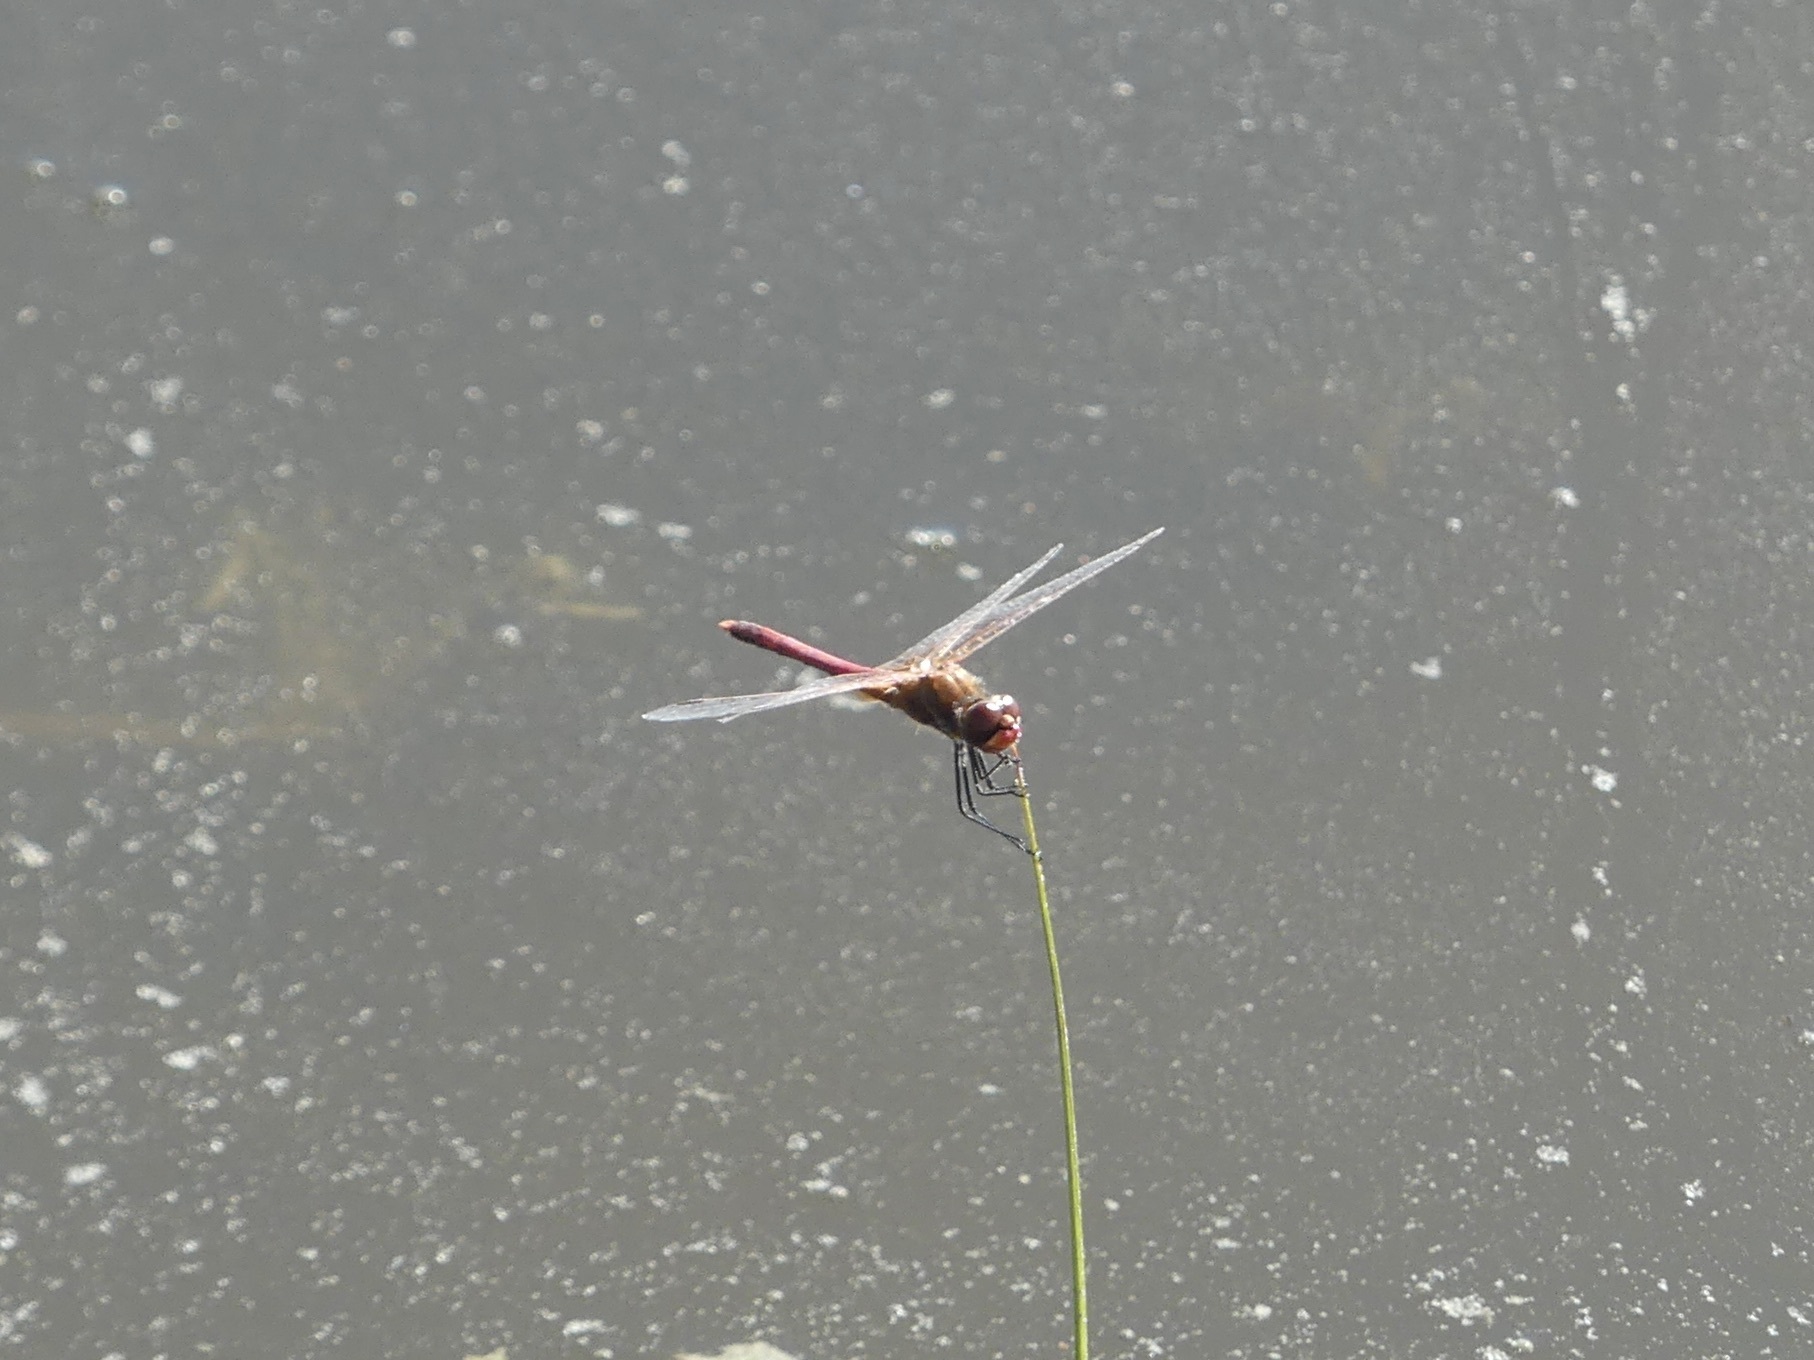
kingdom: Animalia
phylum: Arthropoda
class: Insecta
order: Odonata
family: Libellulidae
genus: Sympetrum
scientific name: Sympetrum fonscolombii
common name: Red-veined darter
